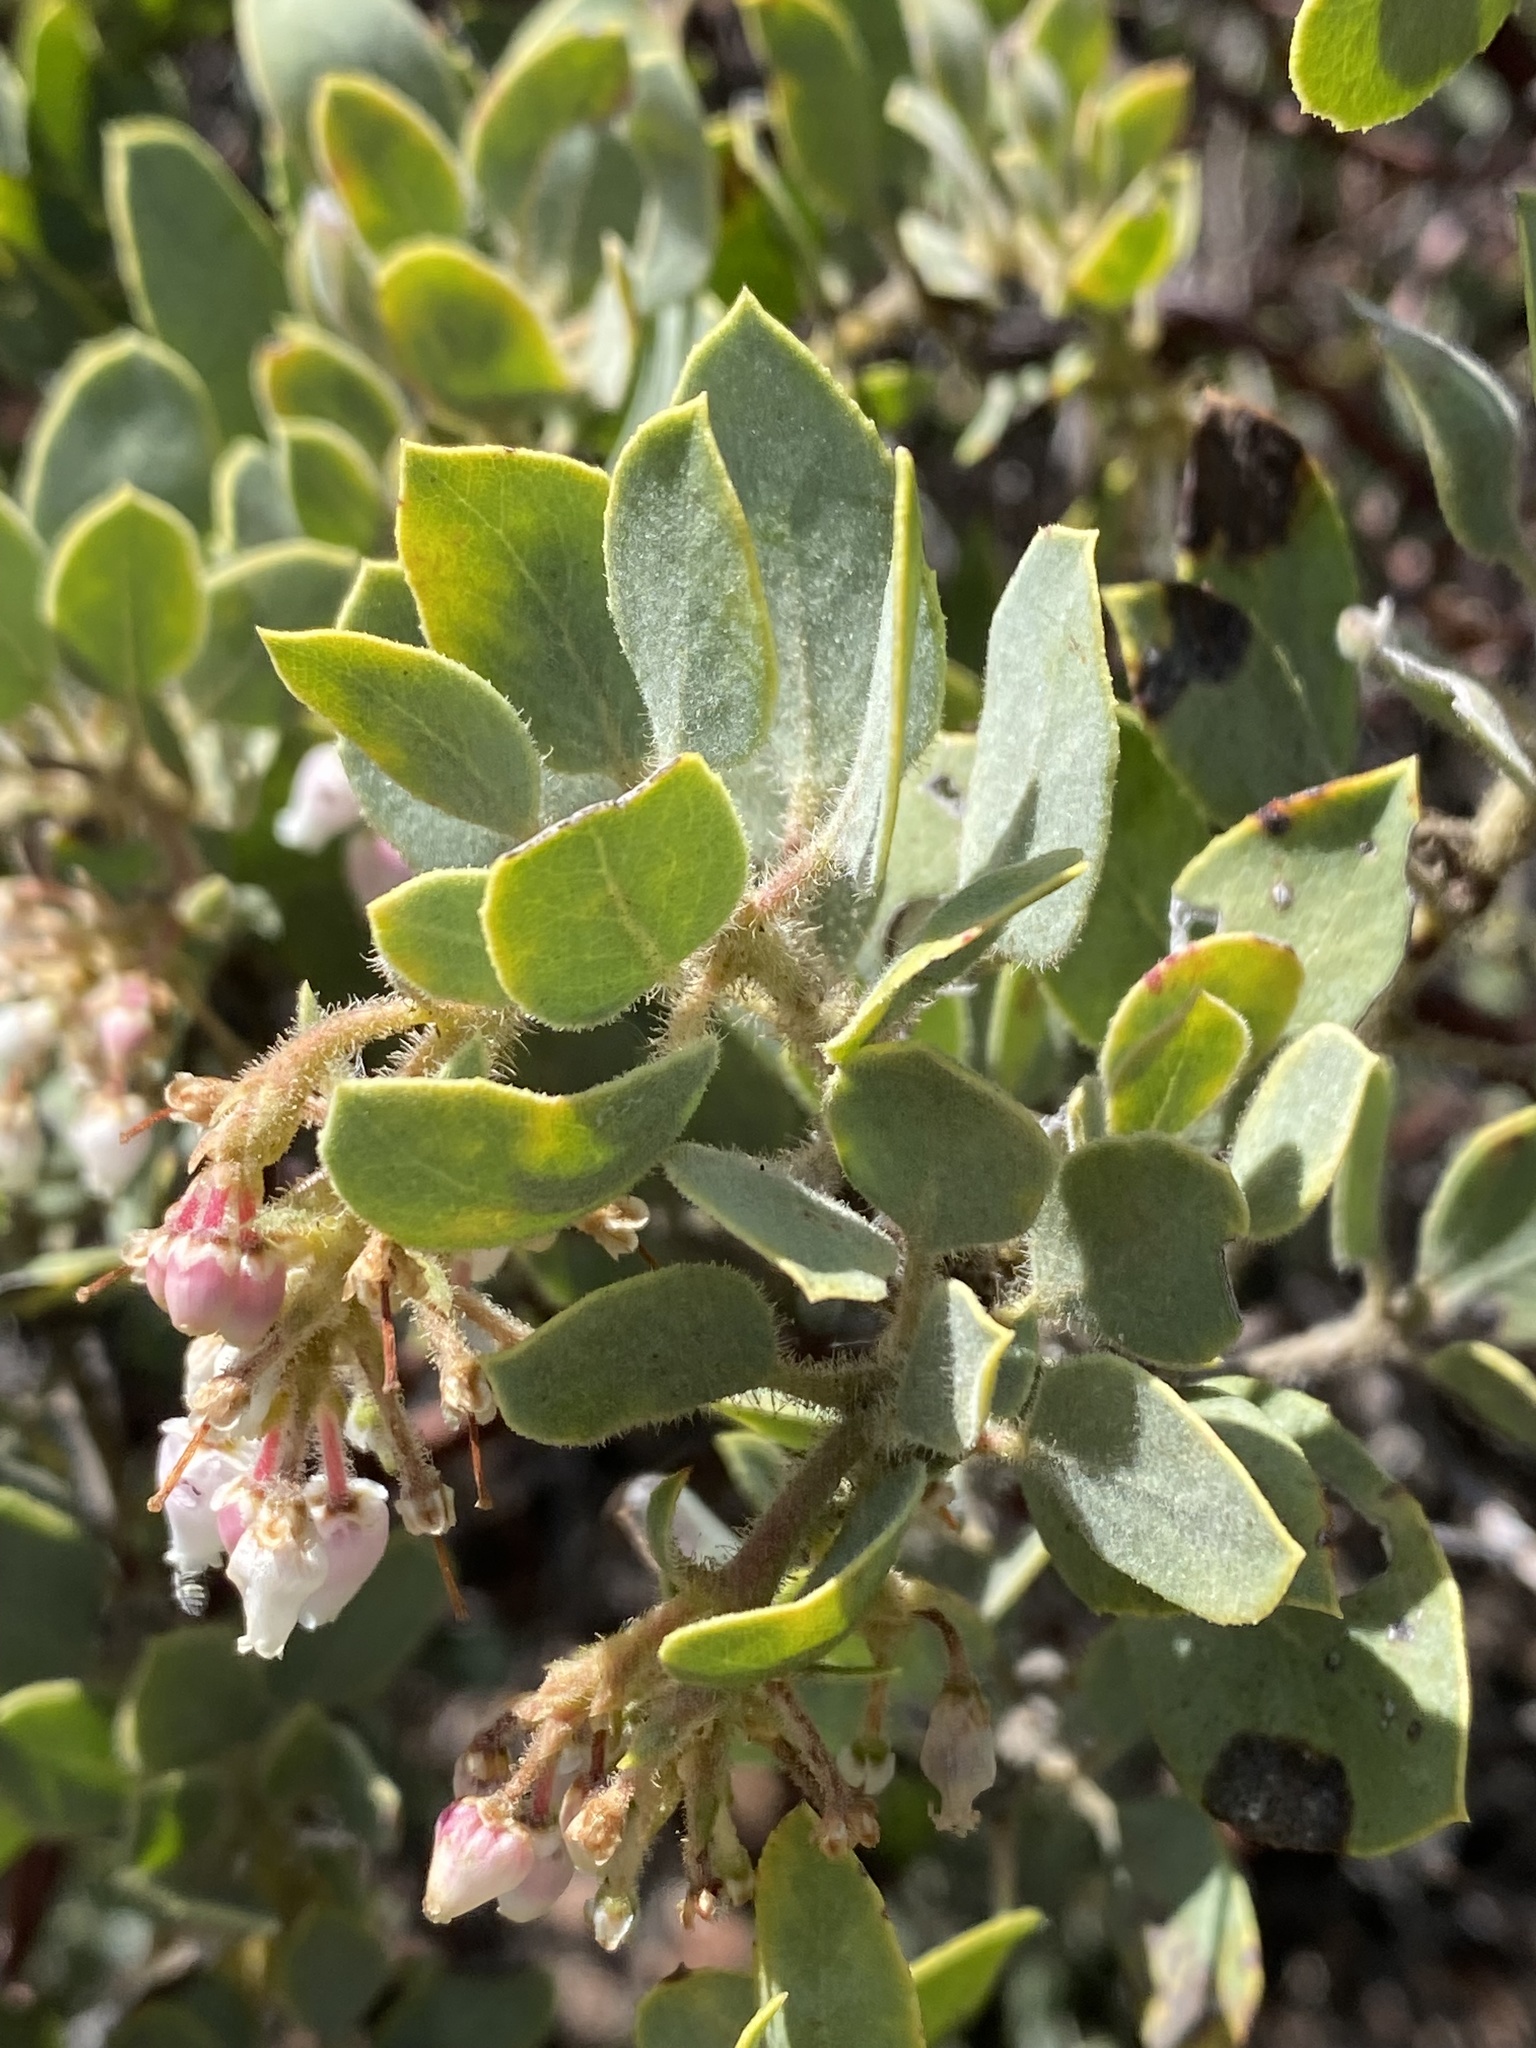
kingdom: Plantae
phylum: Tracheophyta
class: Magnoliopsida
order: Ericales
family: Ericaceae
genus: Arctostaphylos
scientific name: Arctostaphylos glandulosa
